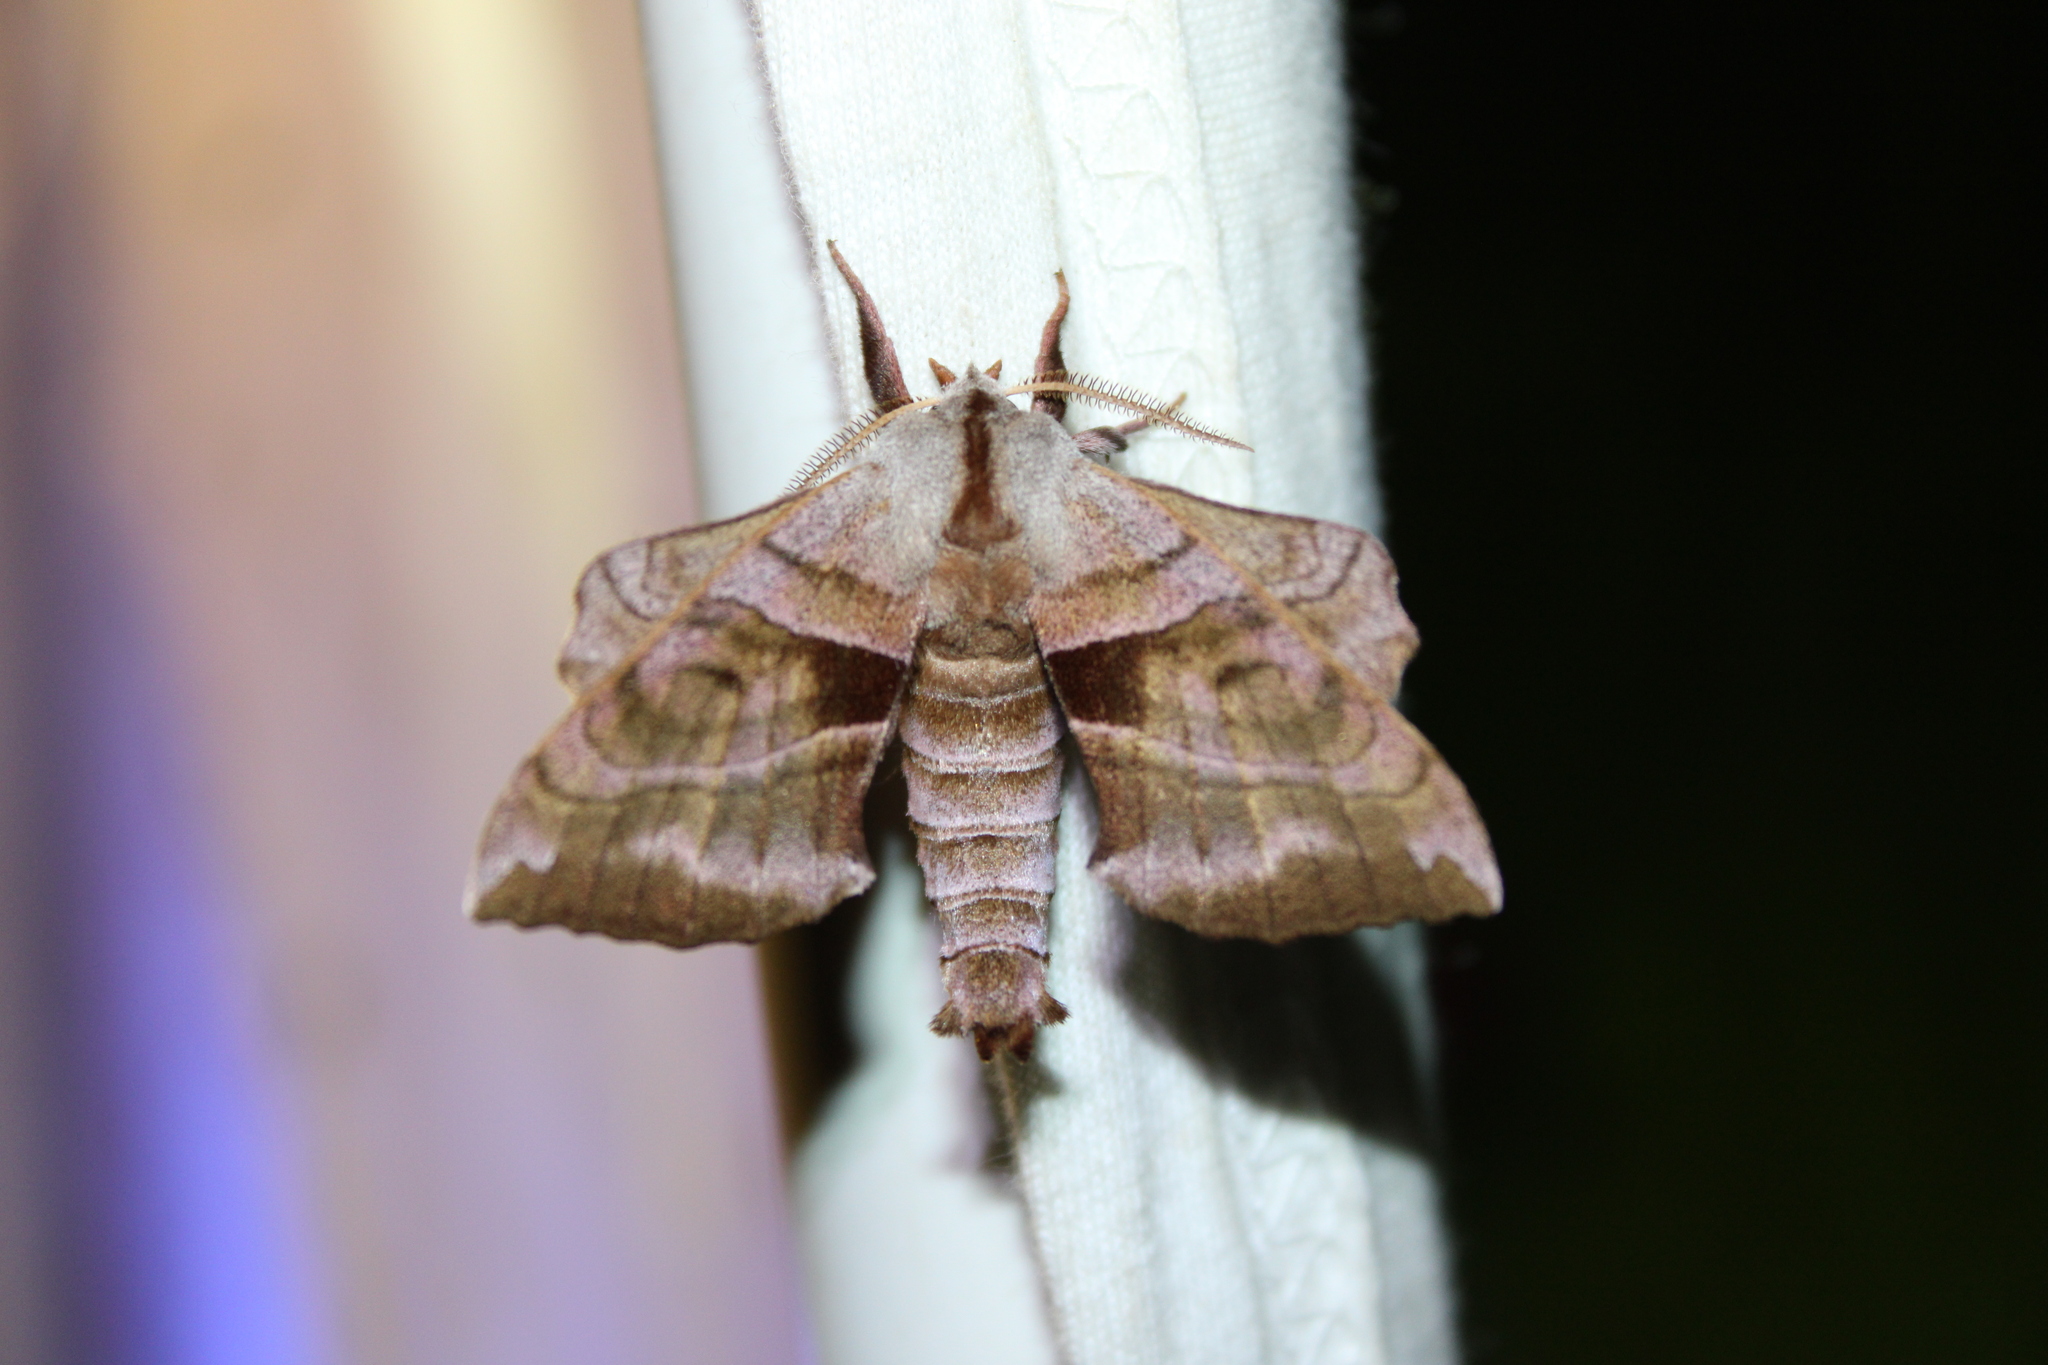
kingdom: Animalia
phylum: Arthropoda
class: Insecta
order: Lepidoptera
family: Sphingidae
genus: Amorpha
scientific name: Amorpha juglandis
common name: Walnut sphinx
